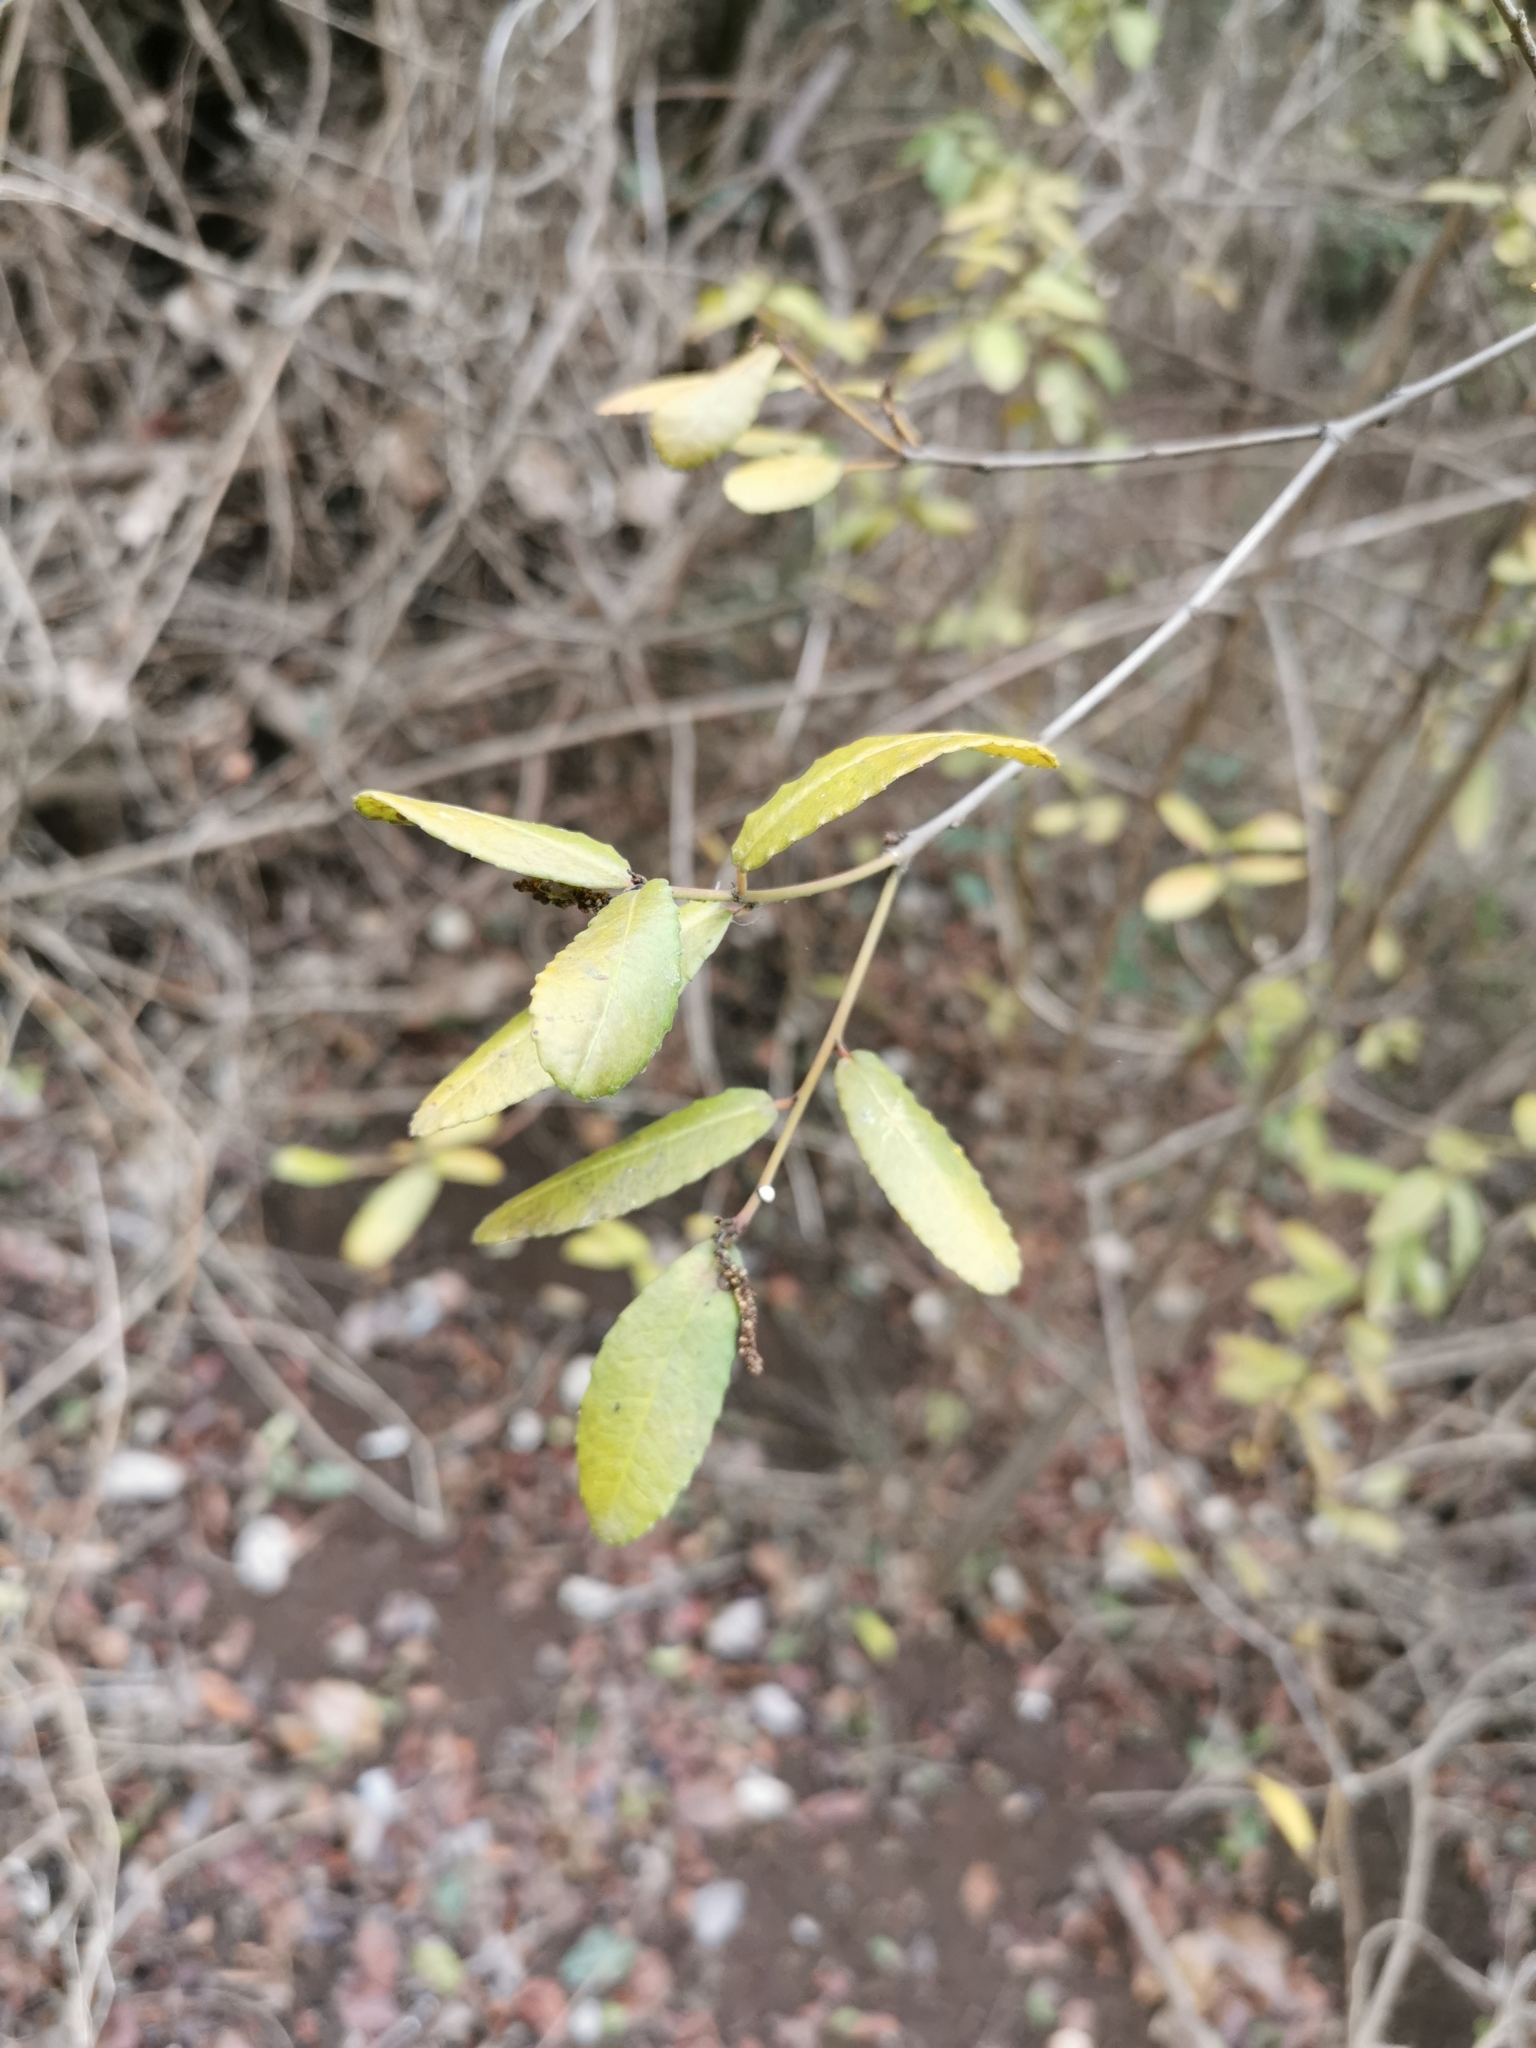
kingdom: Plantae
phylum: Tracheophyta
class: Magnoliopsida
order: Malpighiales
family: Euphorbiaceae
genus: Adenopeltis
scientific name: Adenopeltis serrata
